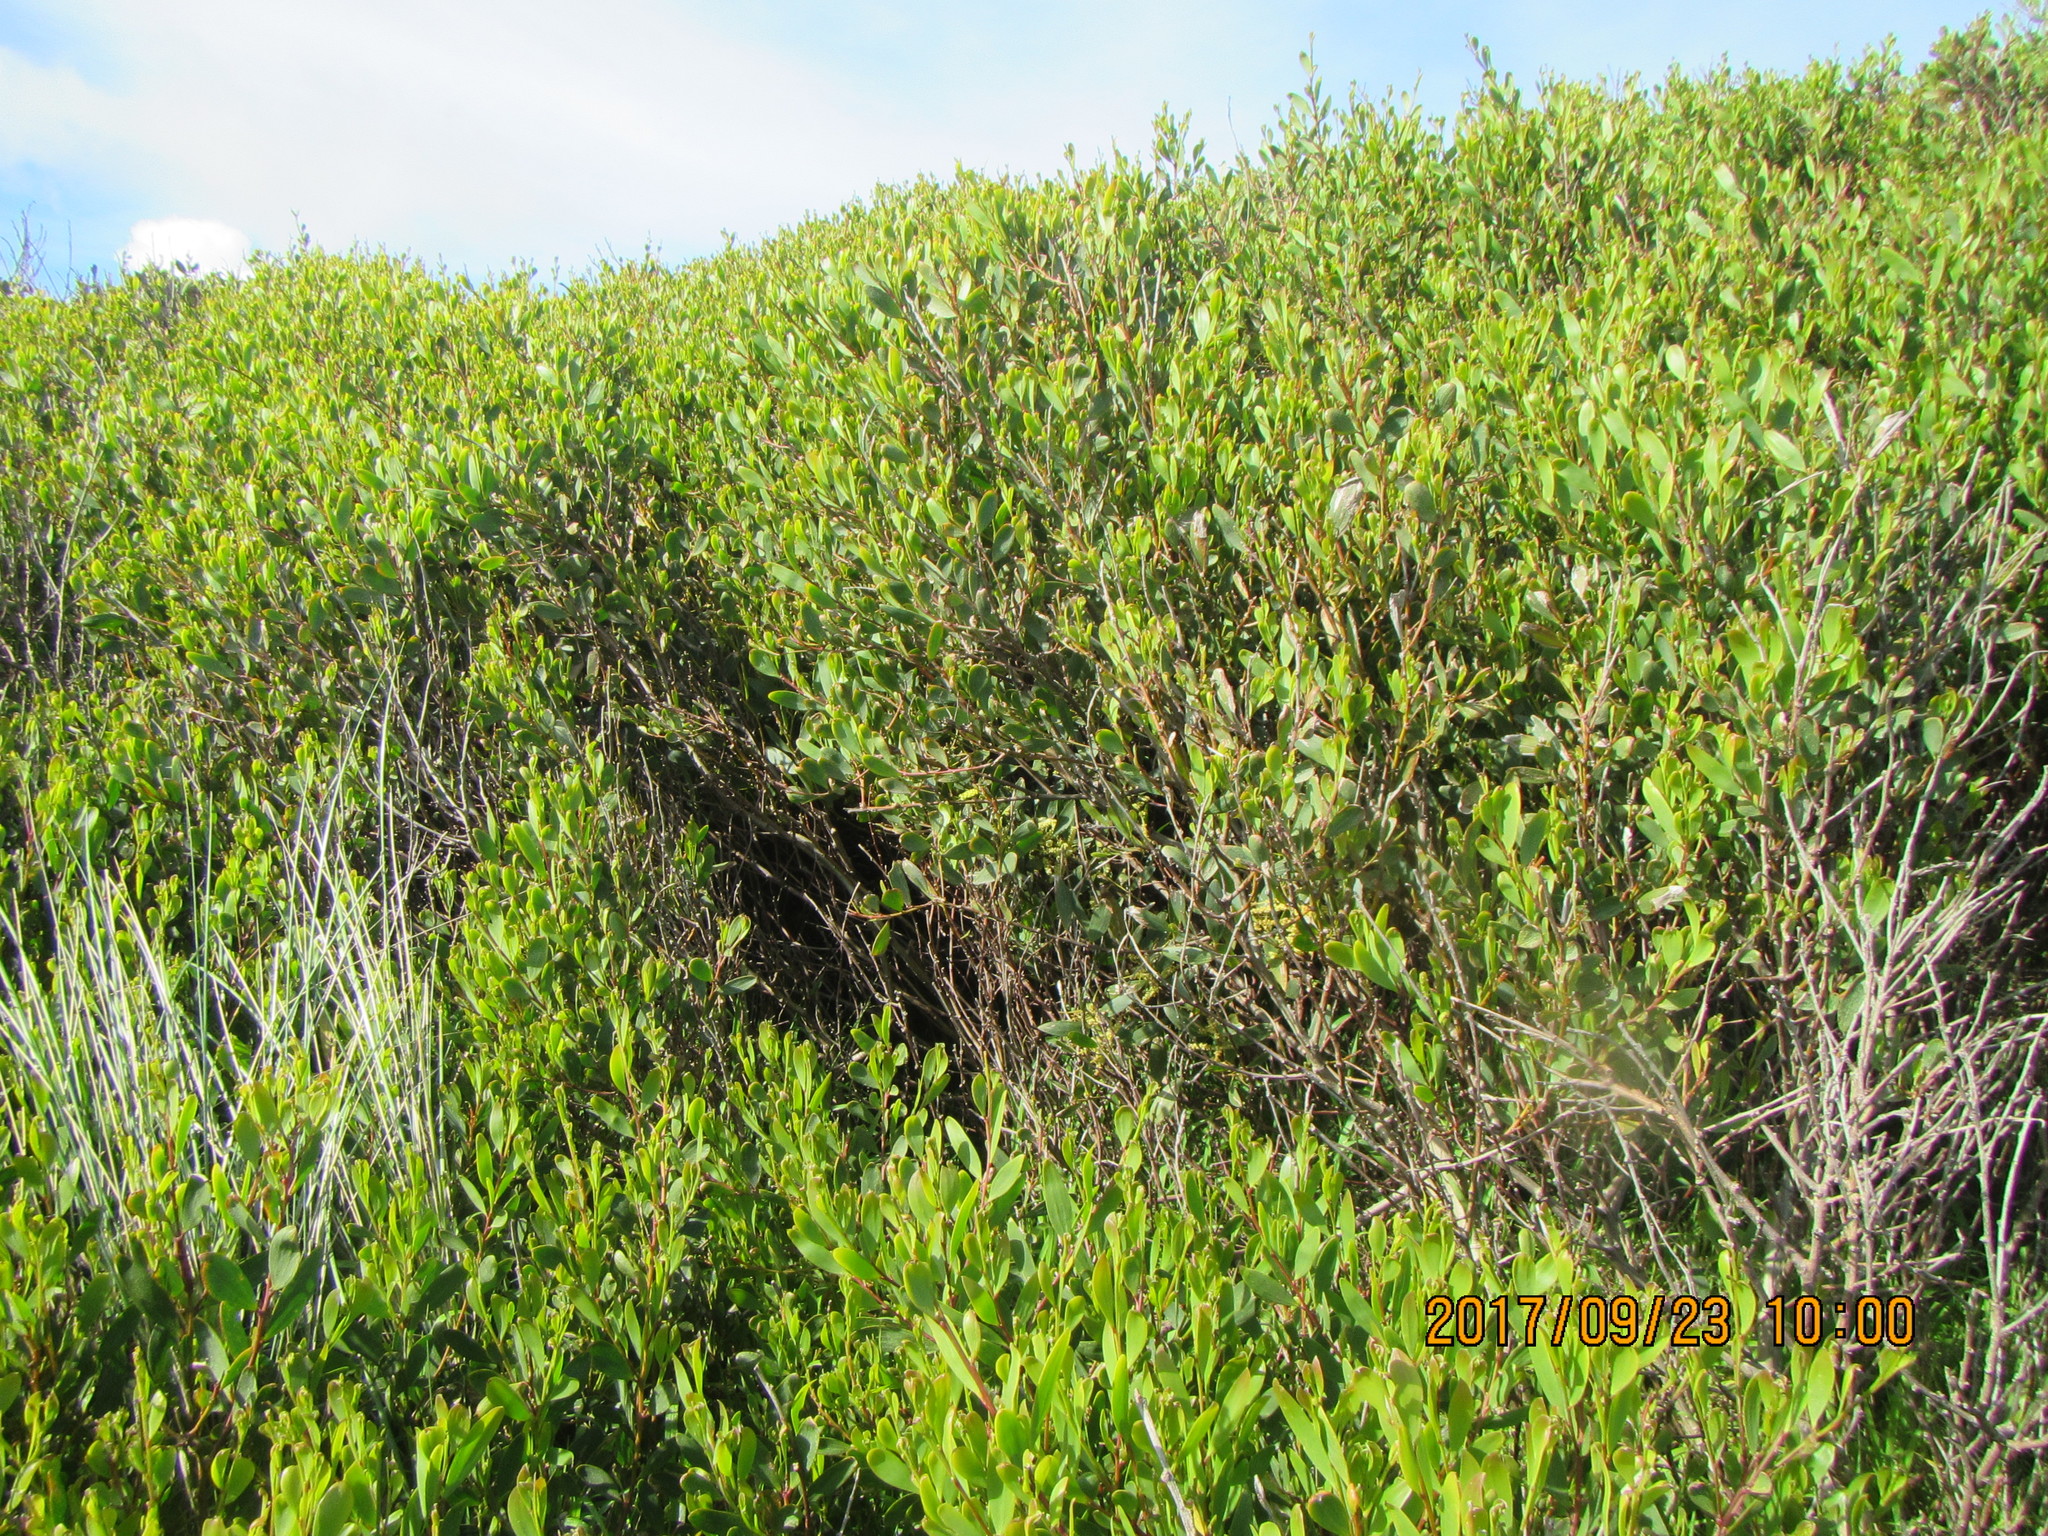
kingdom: Plantae
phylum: Tracheophyta
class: Magnoliopsida
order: Fabales
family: Fabaceae
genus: Acacia
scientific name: Acacia longifolia
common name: Sydney golden wattle
